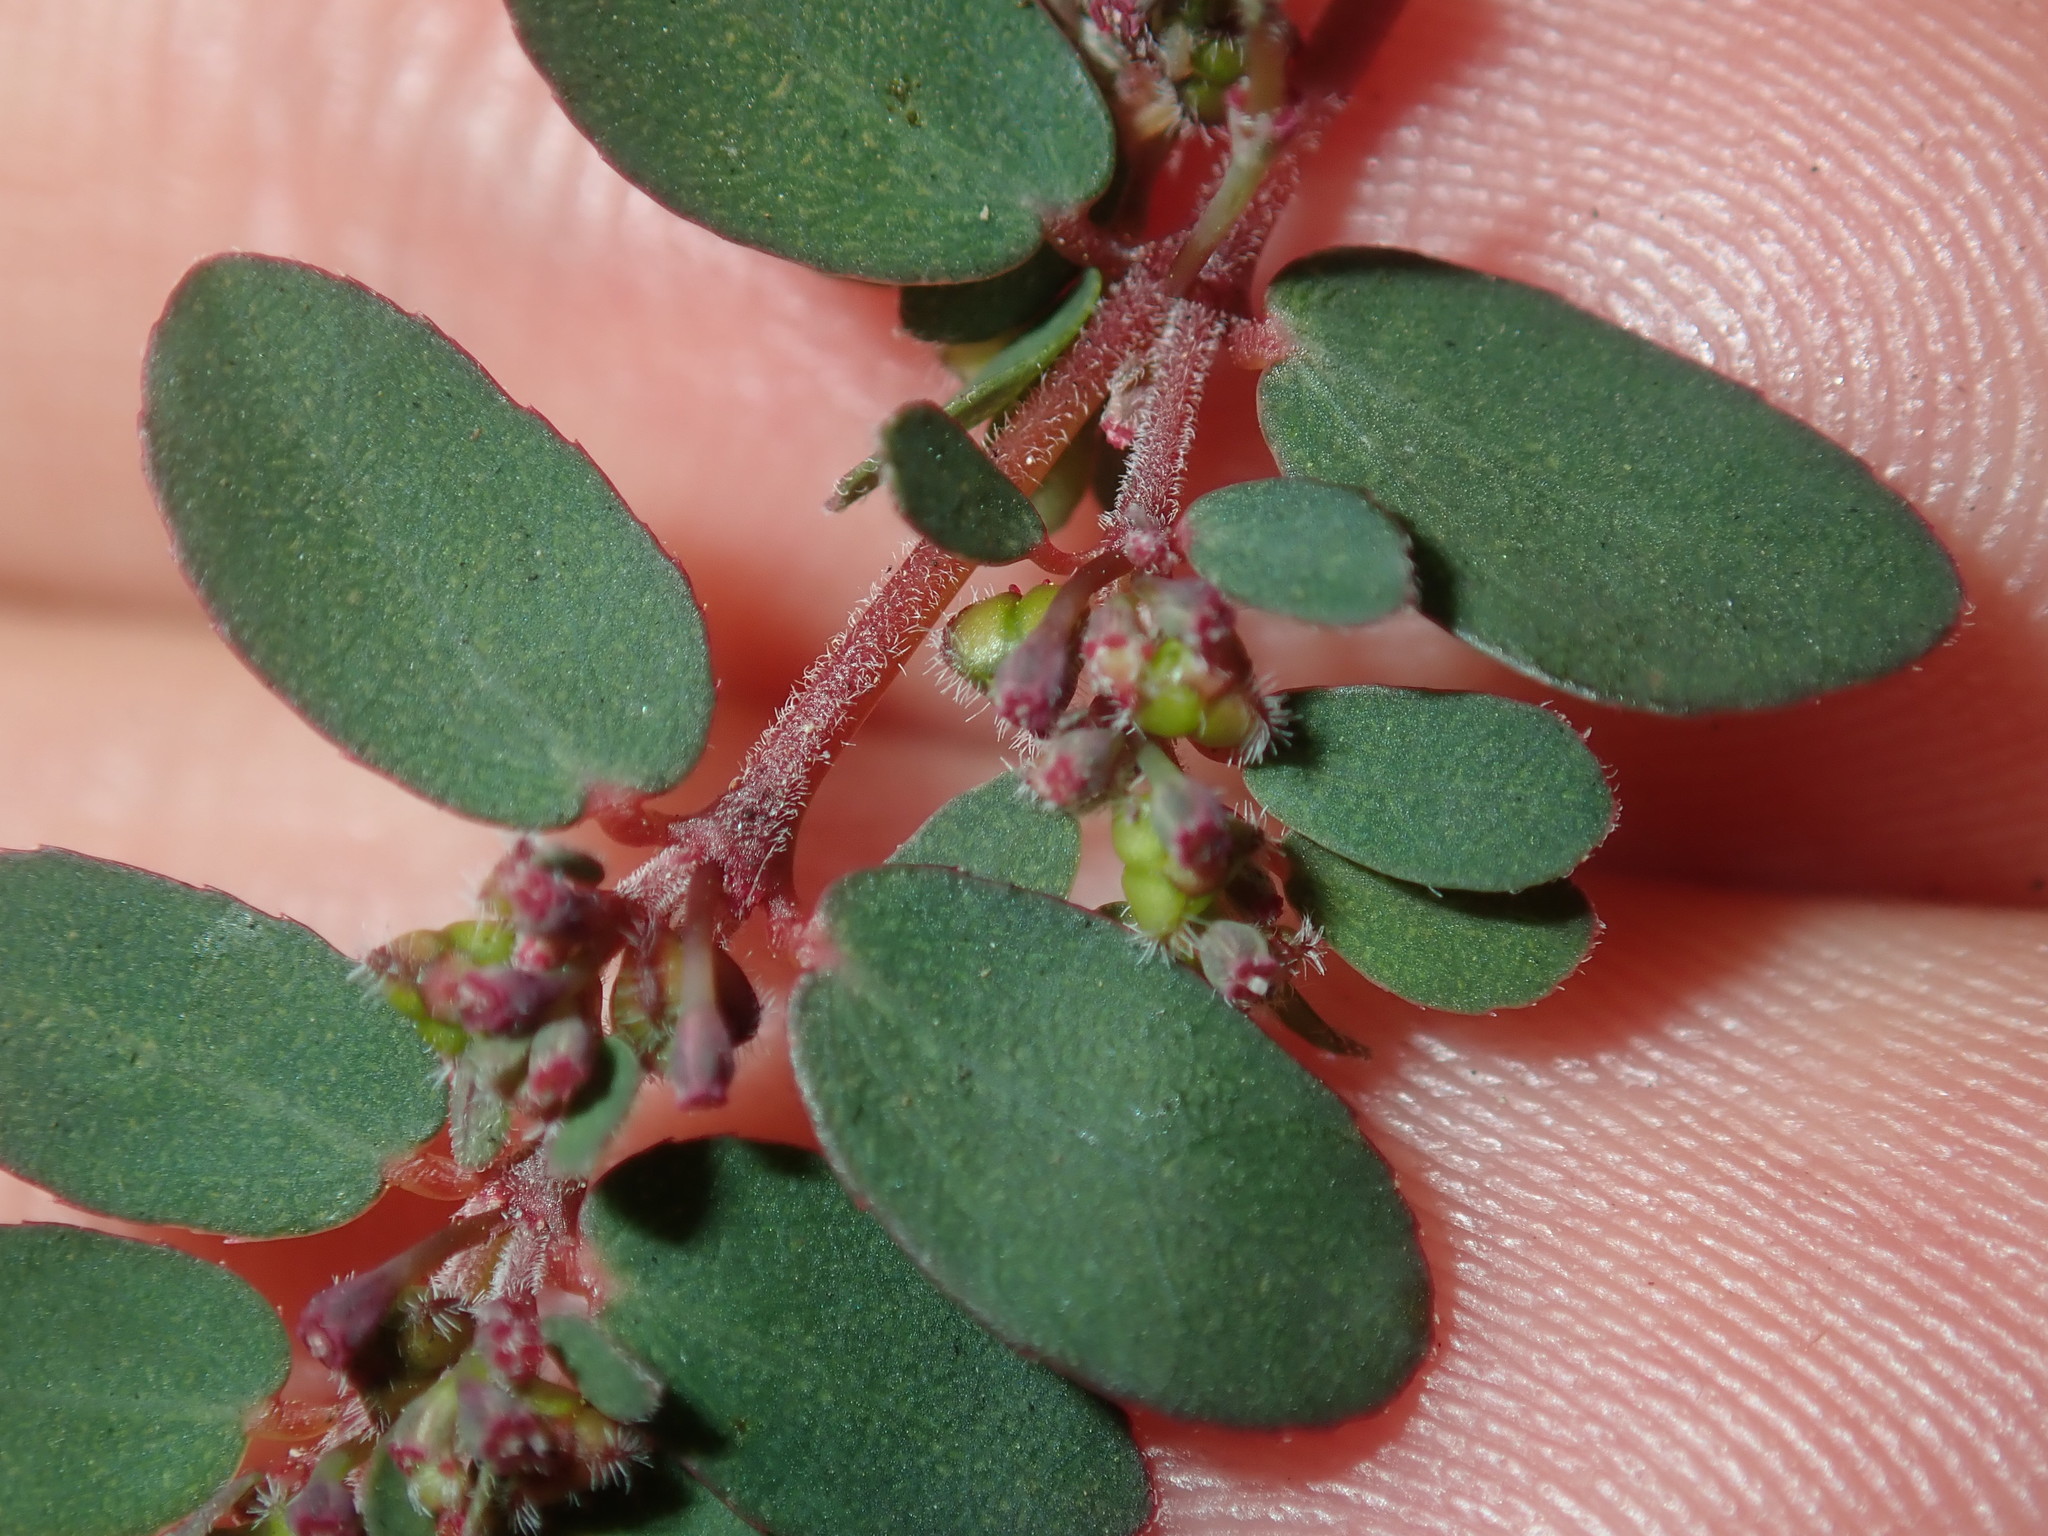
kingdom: Plantae
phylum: Tracheophyta
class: Magnoliopsida
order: Malpighiales
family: Euphorbiaceae
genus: Euphorbia
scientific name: Euphorbia prostrata
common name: Prostrate sandmat
